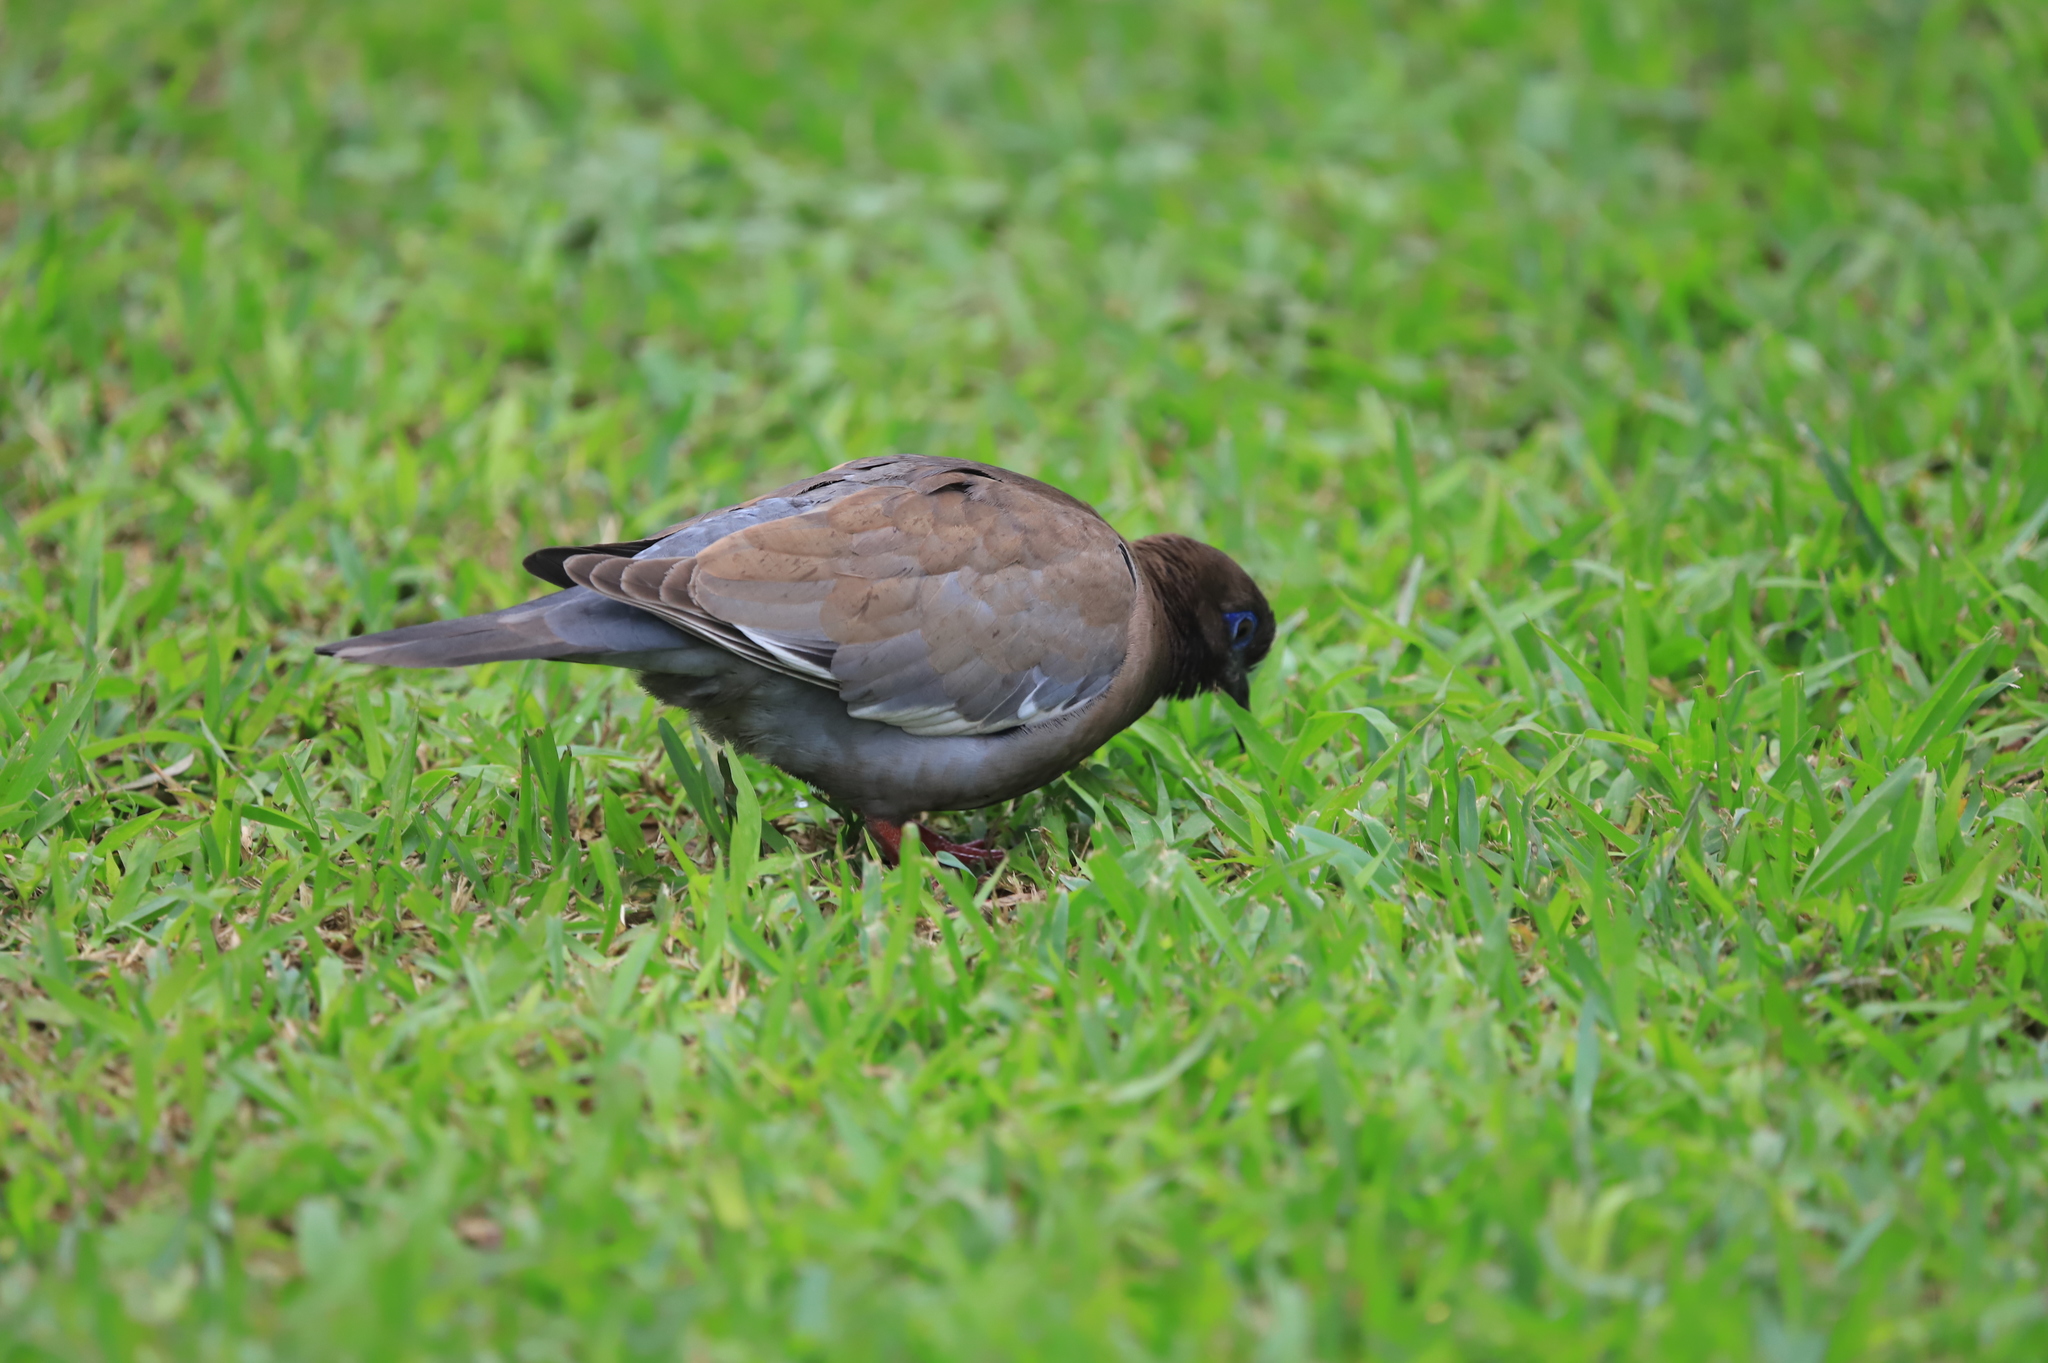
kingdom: Animalia
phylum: Chordata
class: Aves
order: Columbiformes
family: Columbidae
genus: Zenaida
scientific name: Zenaida meloda
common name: West peruvian dove
